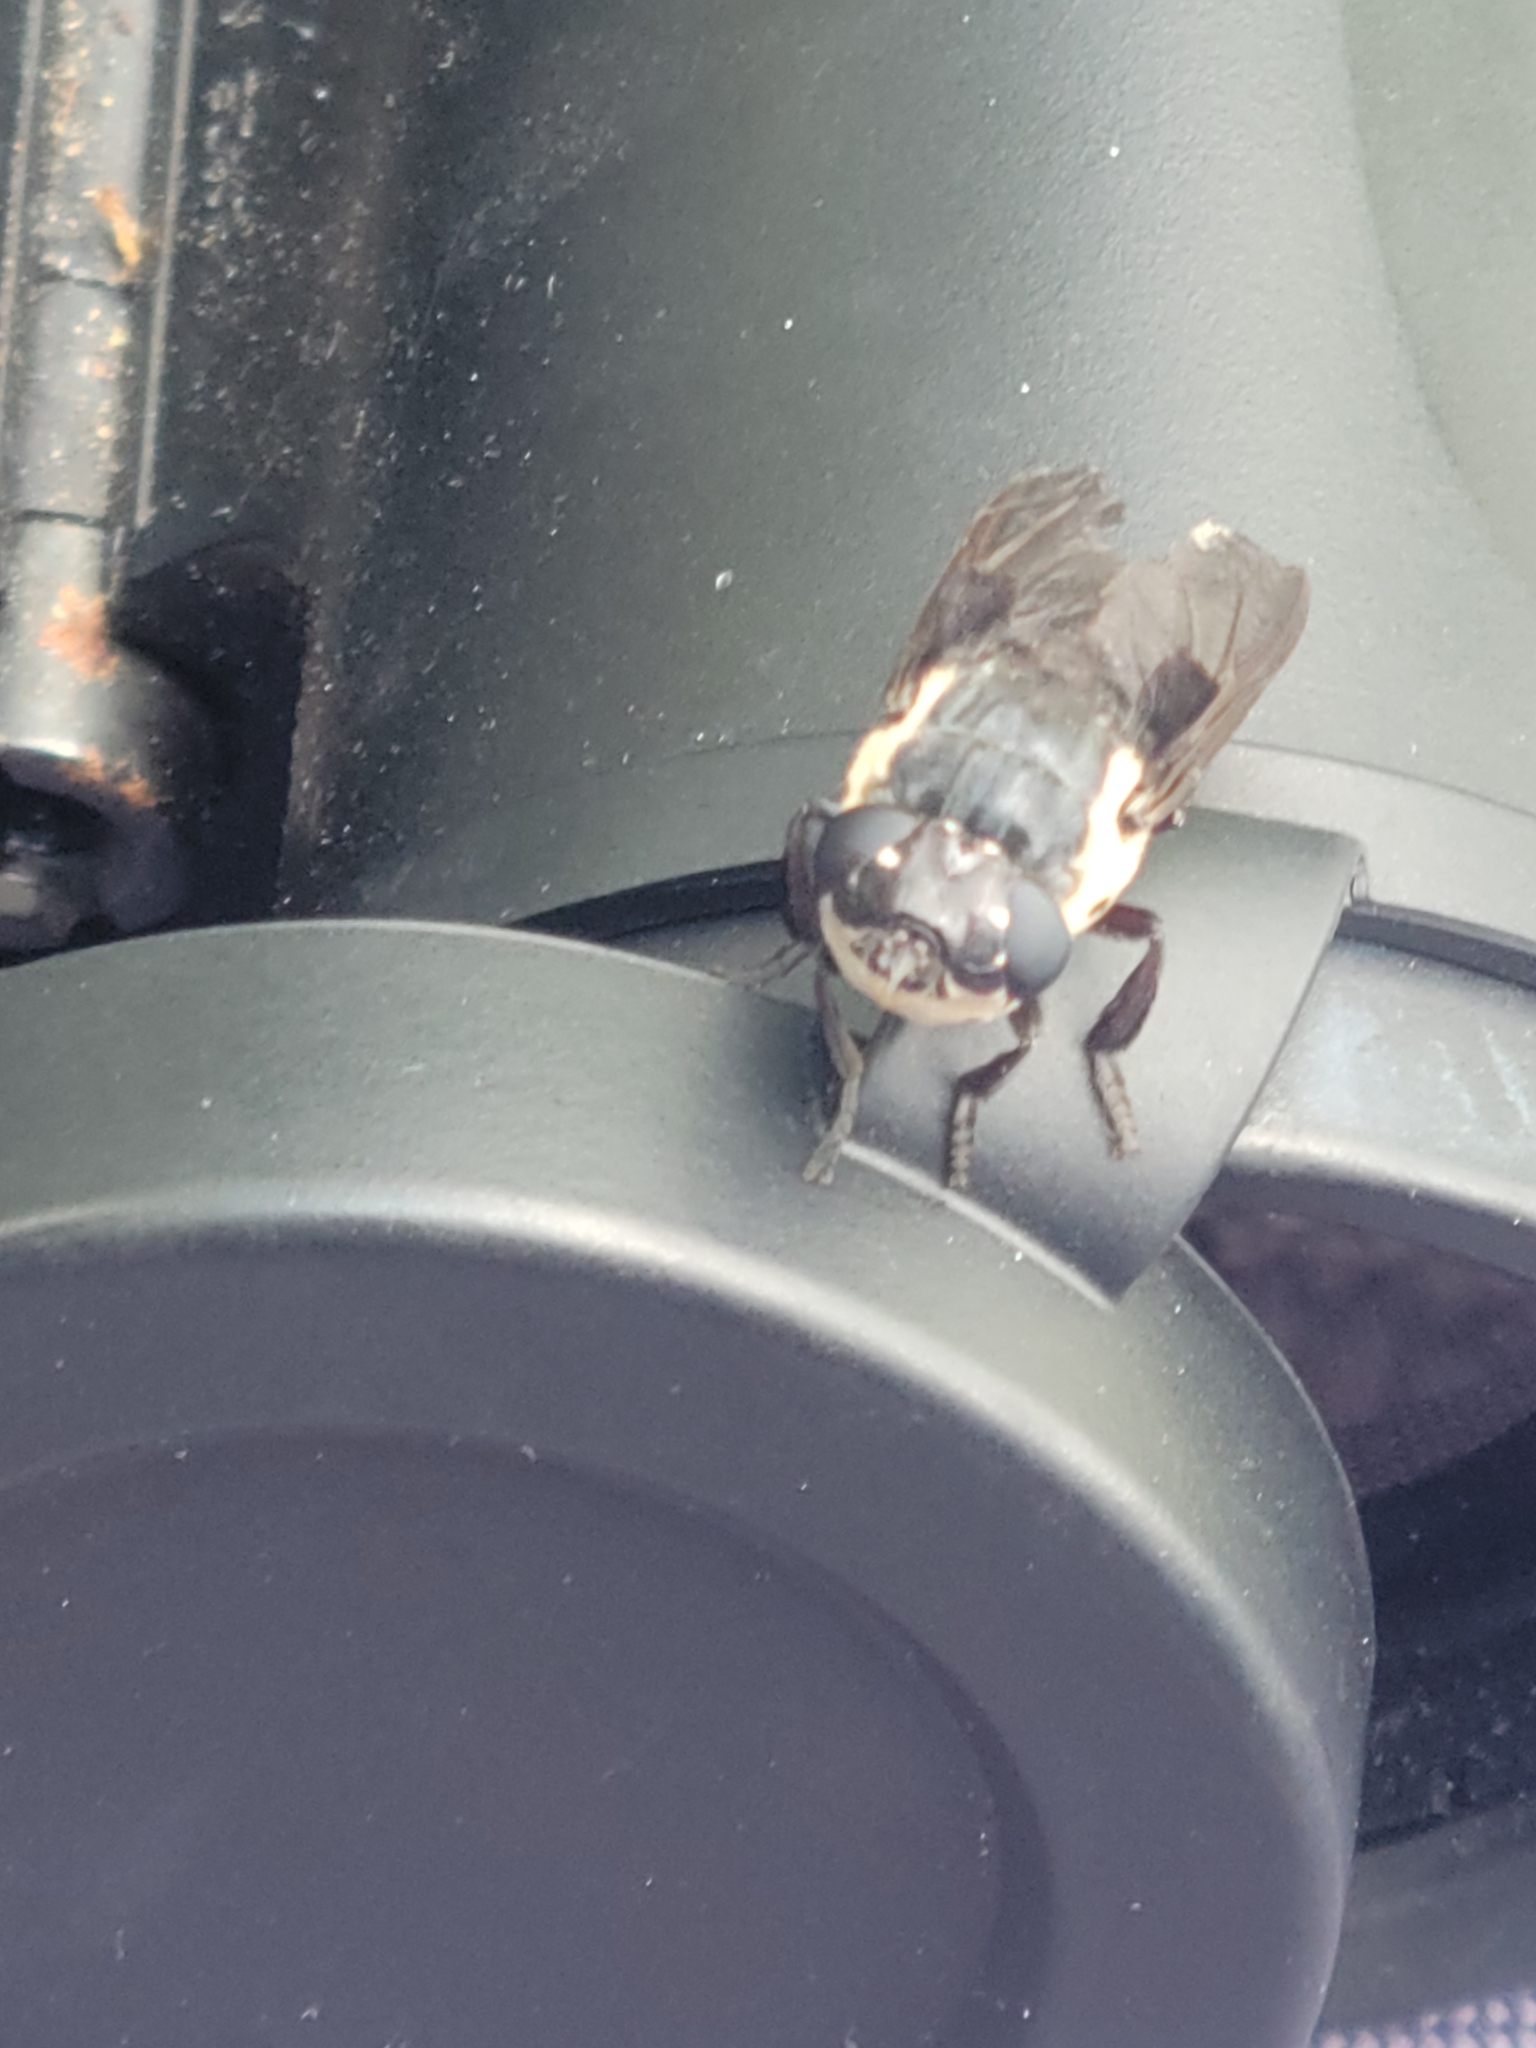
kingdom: Animalia
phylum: Arthropoda
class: Insecta
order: Diptera
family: Oestridae
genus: Cuterebra
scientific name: Cuterebra fontinella
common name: Mouse bot fly
